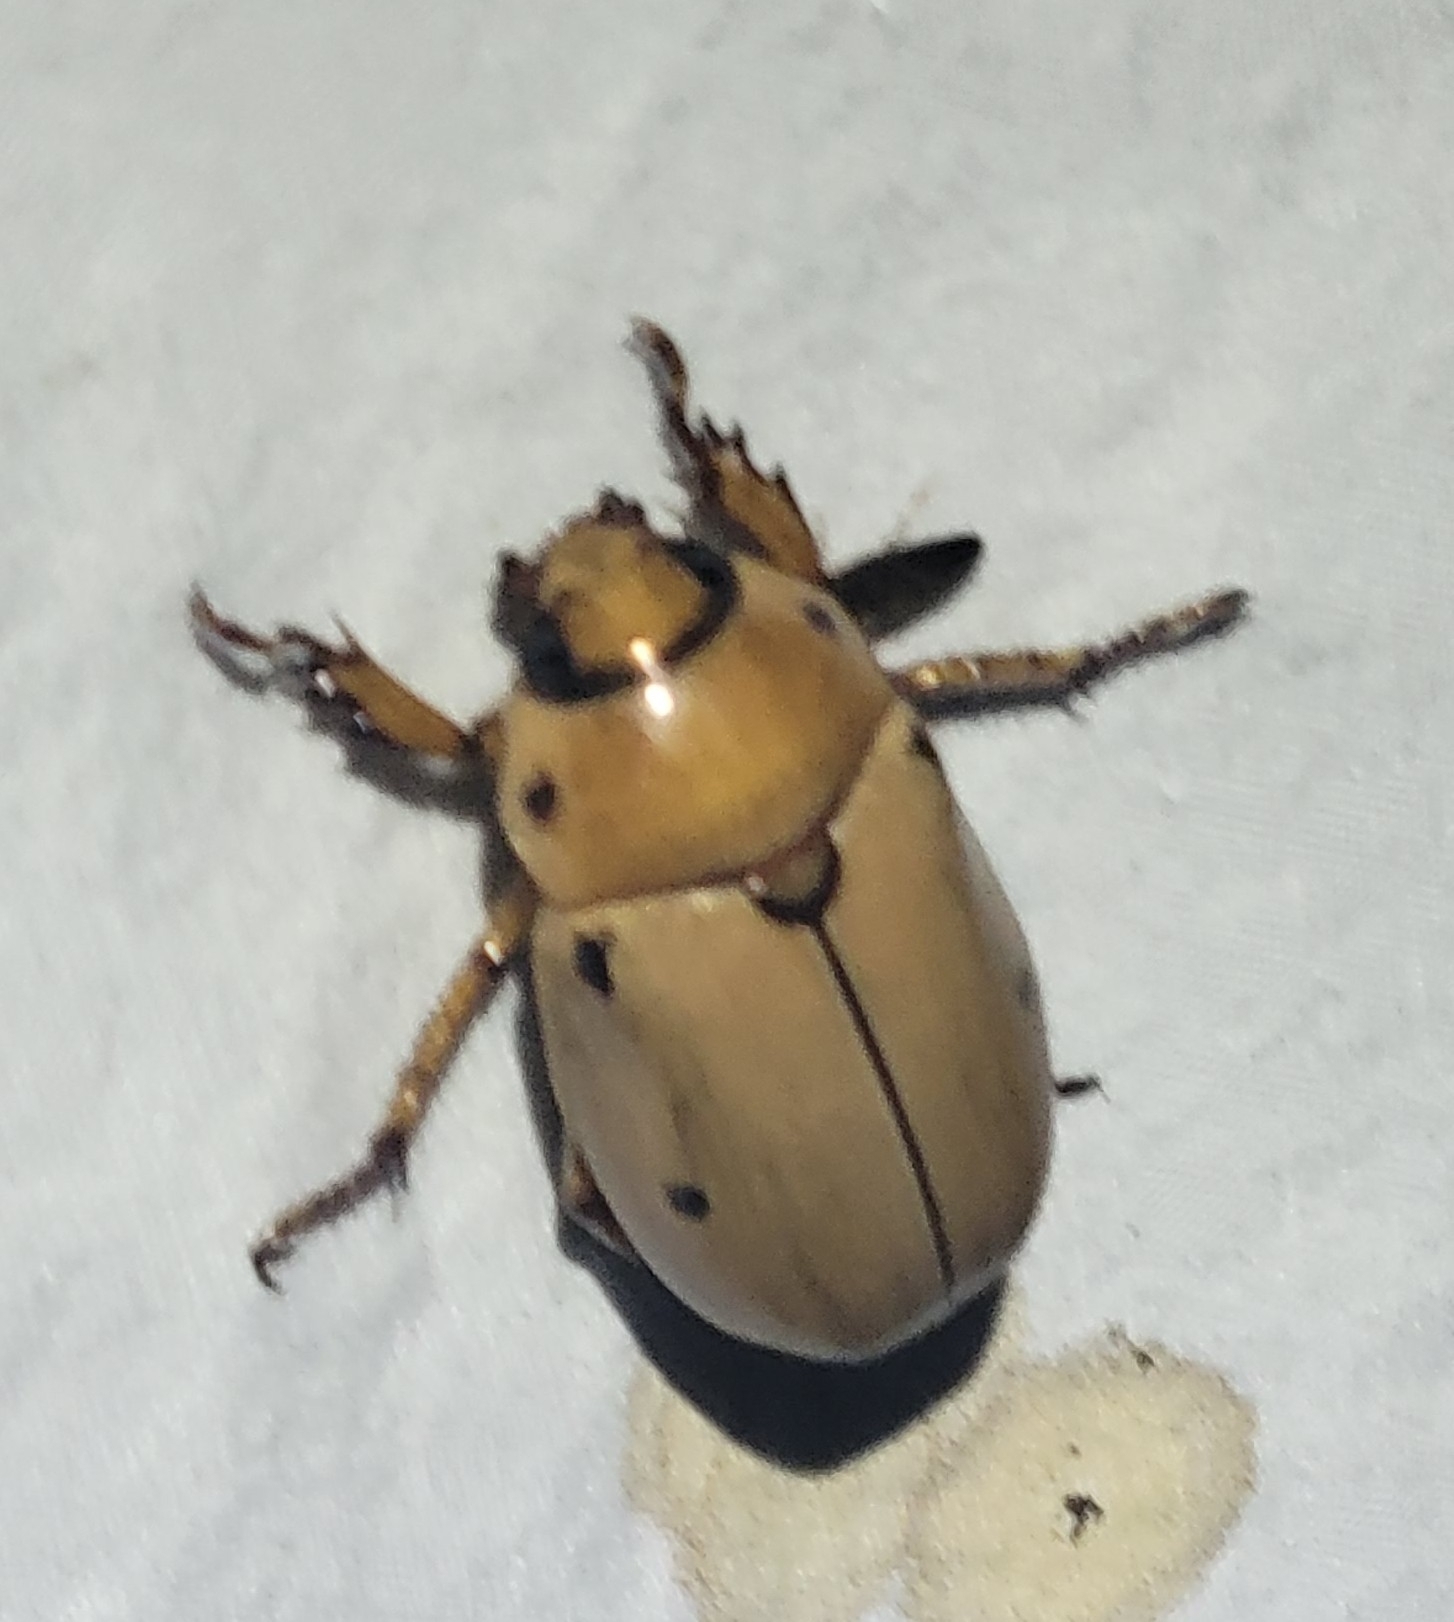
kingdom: Animalia
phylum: Arthropoda
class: Insecta
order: Coleoptera
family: Scarabaeidae
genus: Pelidnota
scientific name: Pelidnota punctata
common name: Grapevine beetle
